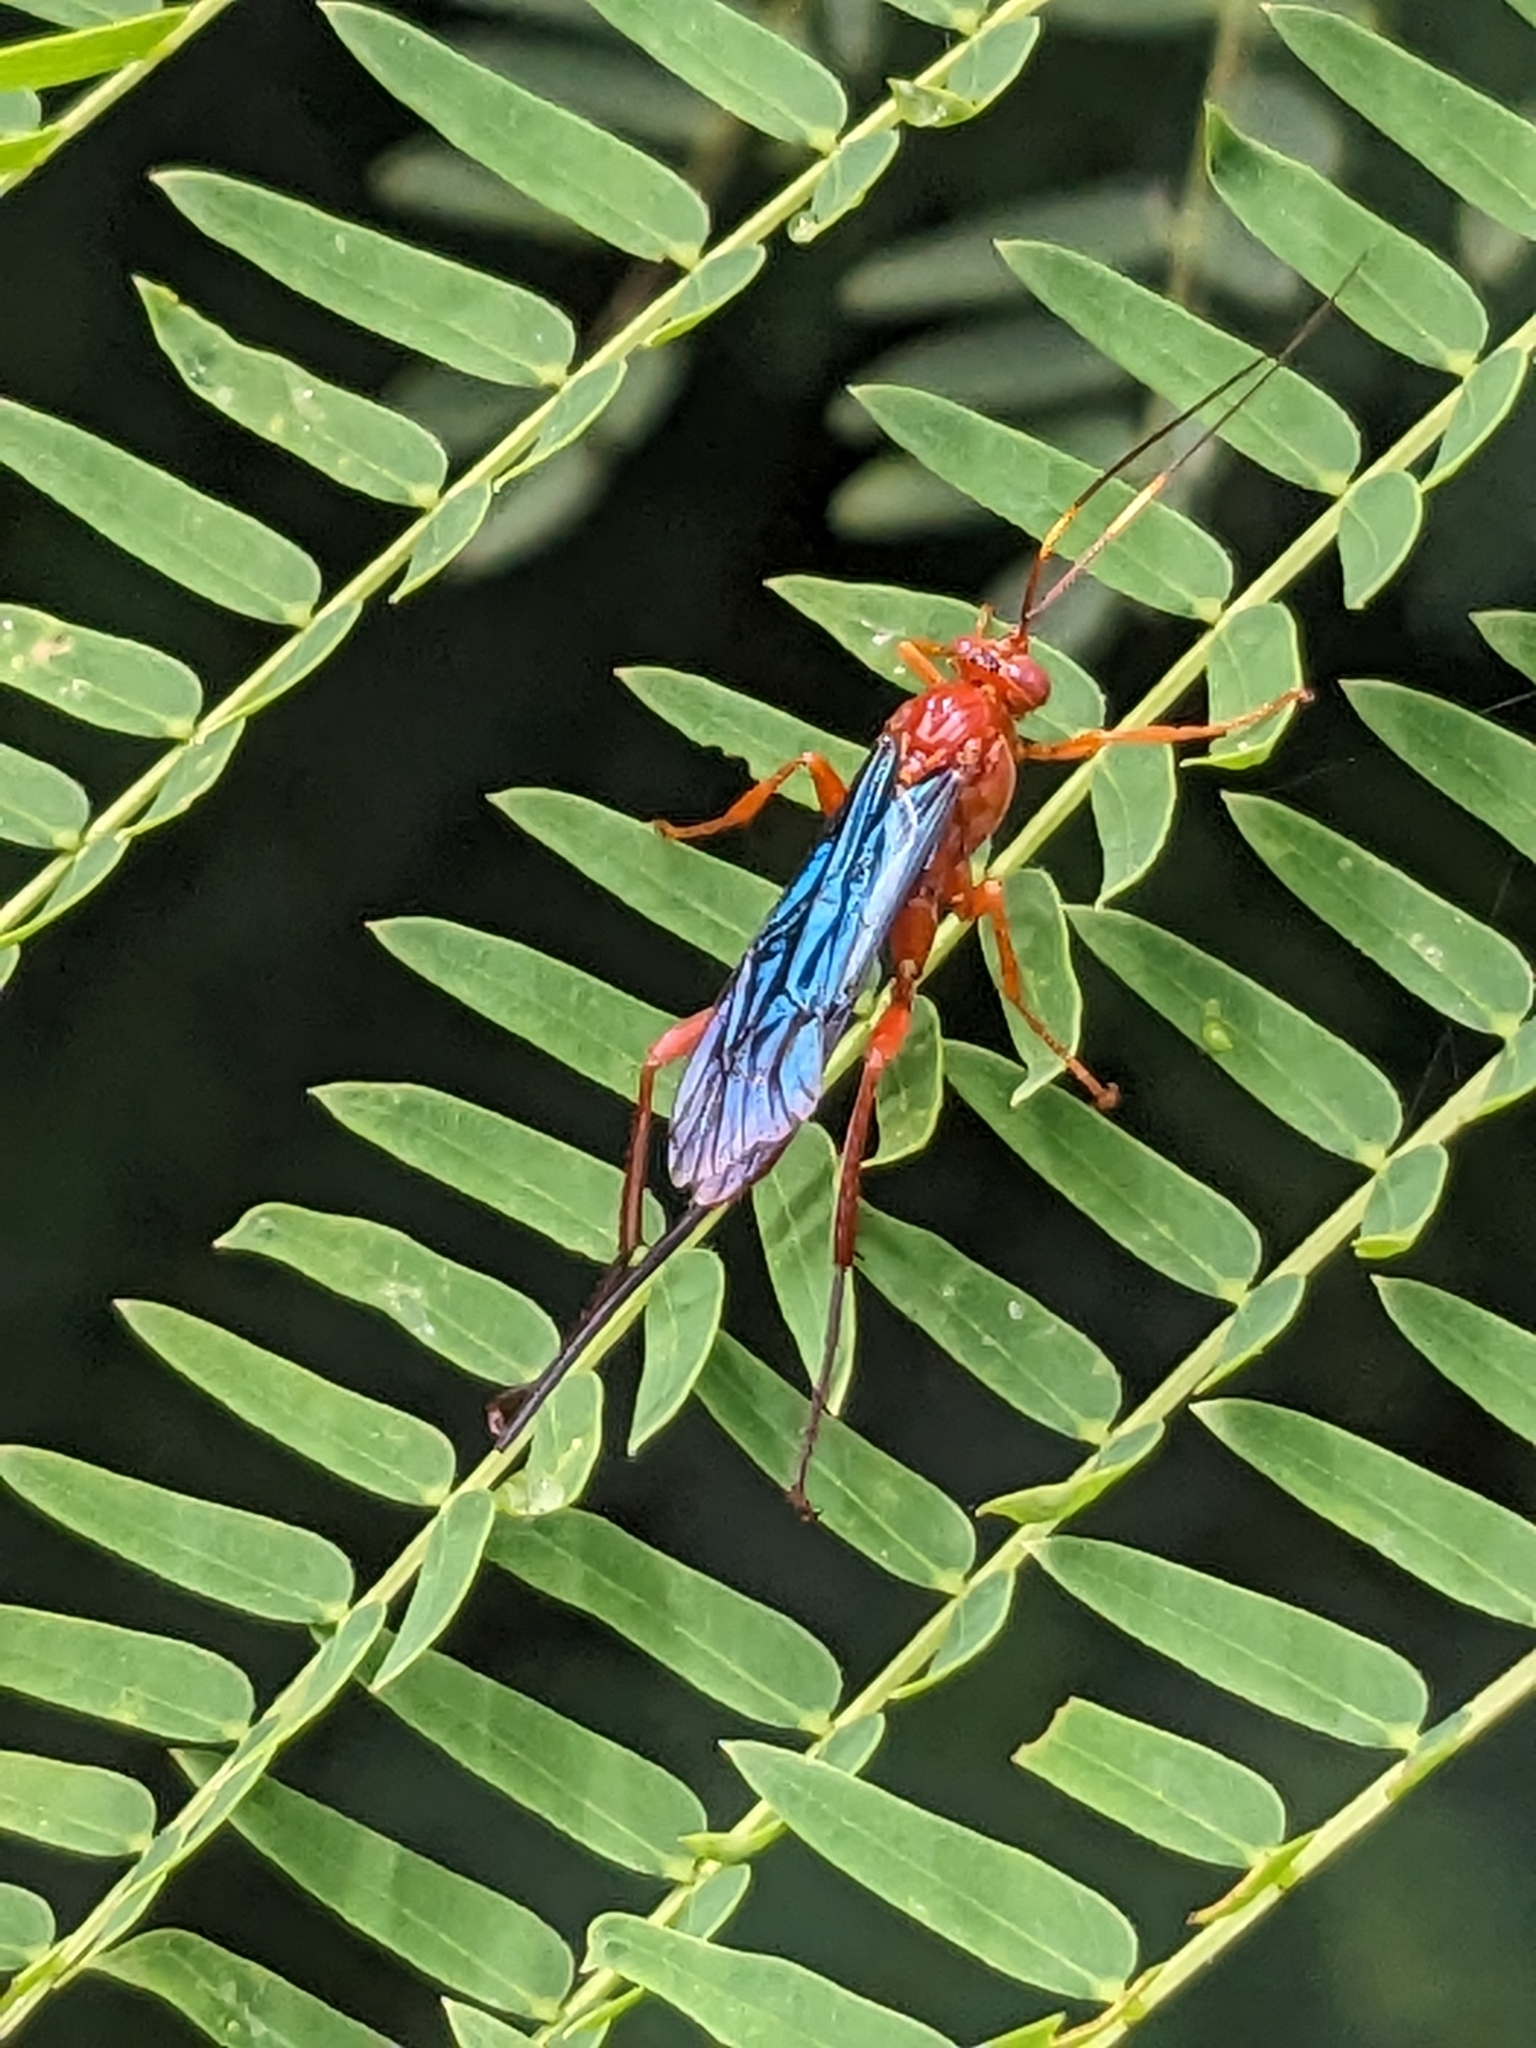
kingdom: Animalia
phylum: Arthropoda
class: Insecta
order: Hymenoptera
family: Ichneumonidae
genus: Lissopimpla
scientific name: Lissopimpla excelsa
